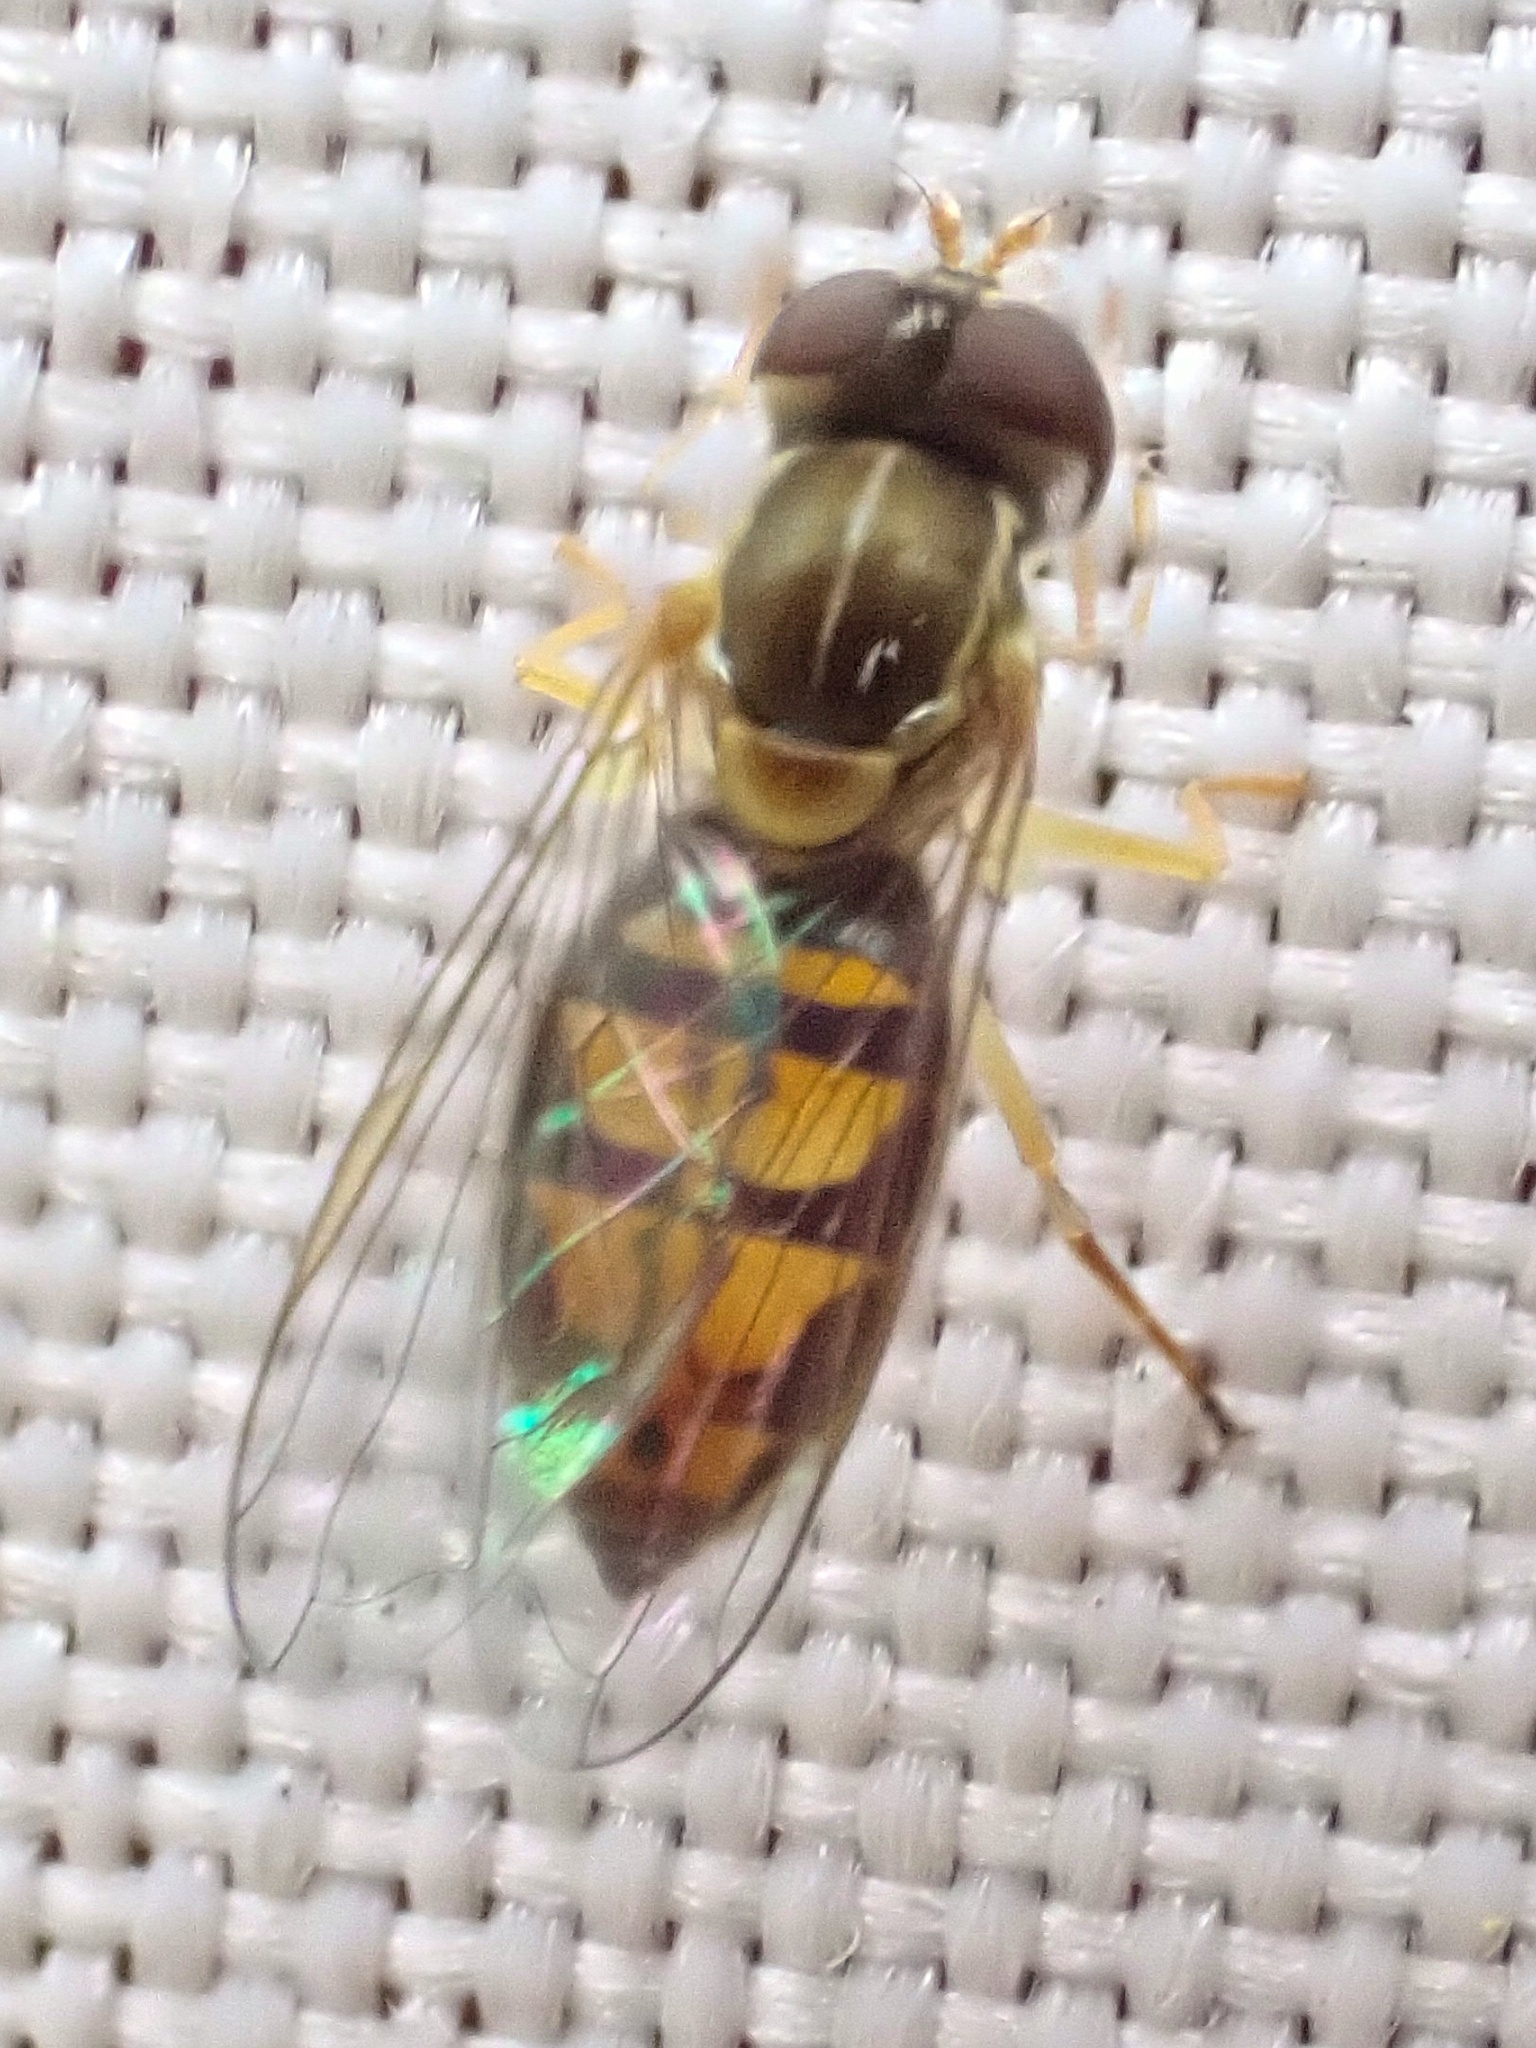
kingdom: Animalia
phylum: Arthropoda
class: Insecta
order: Diptera
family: Syrphidae
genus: Toxomerus
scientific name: Toxomerus marginatus
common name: Syrphid fly
